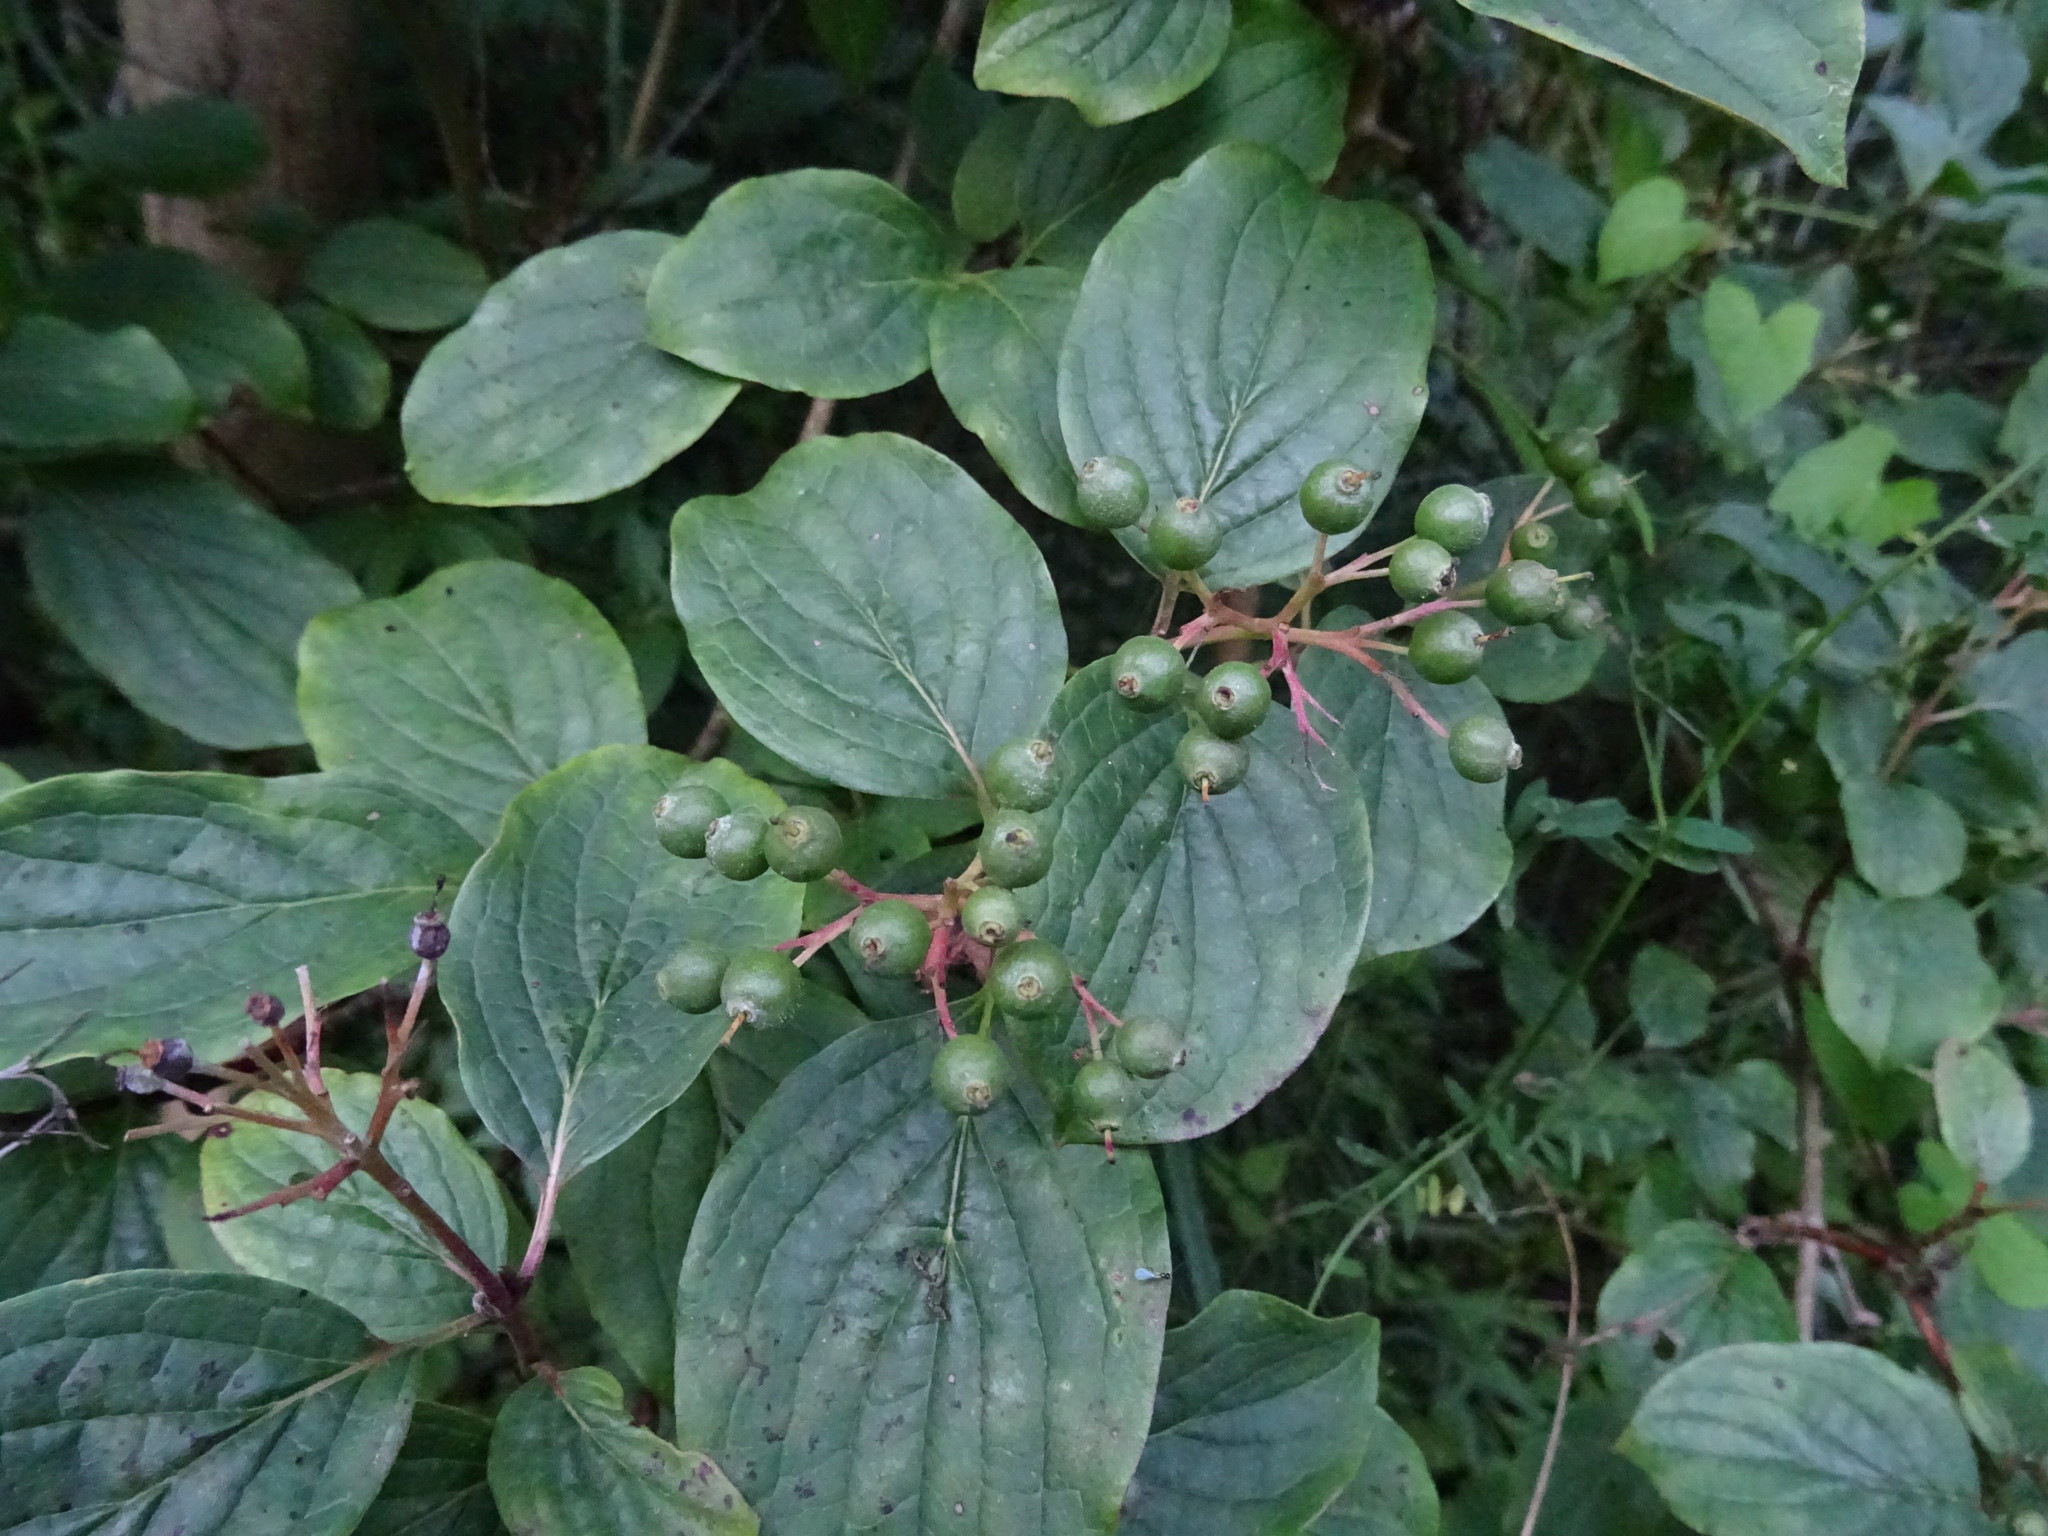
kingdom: Plantae
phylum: Tracheophyta
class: Magnoliopsida
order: Cornales
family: Cornaceae
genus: Cornus
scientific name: Cornus sanguinea
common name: Dogwood
